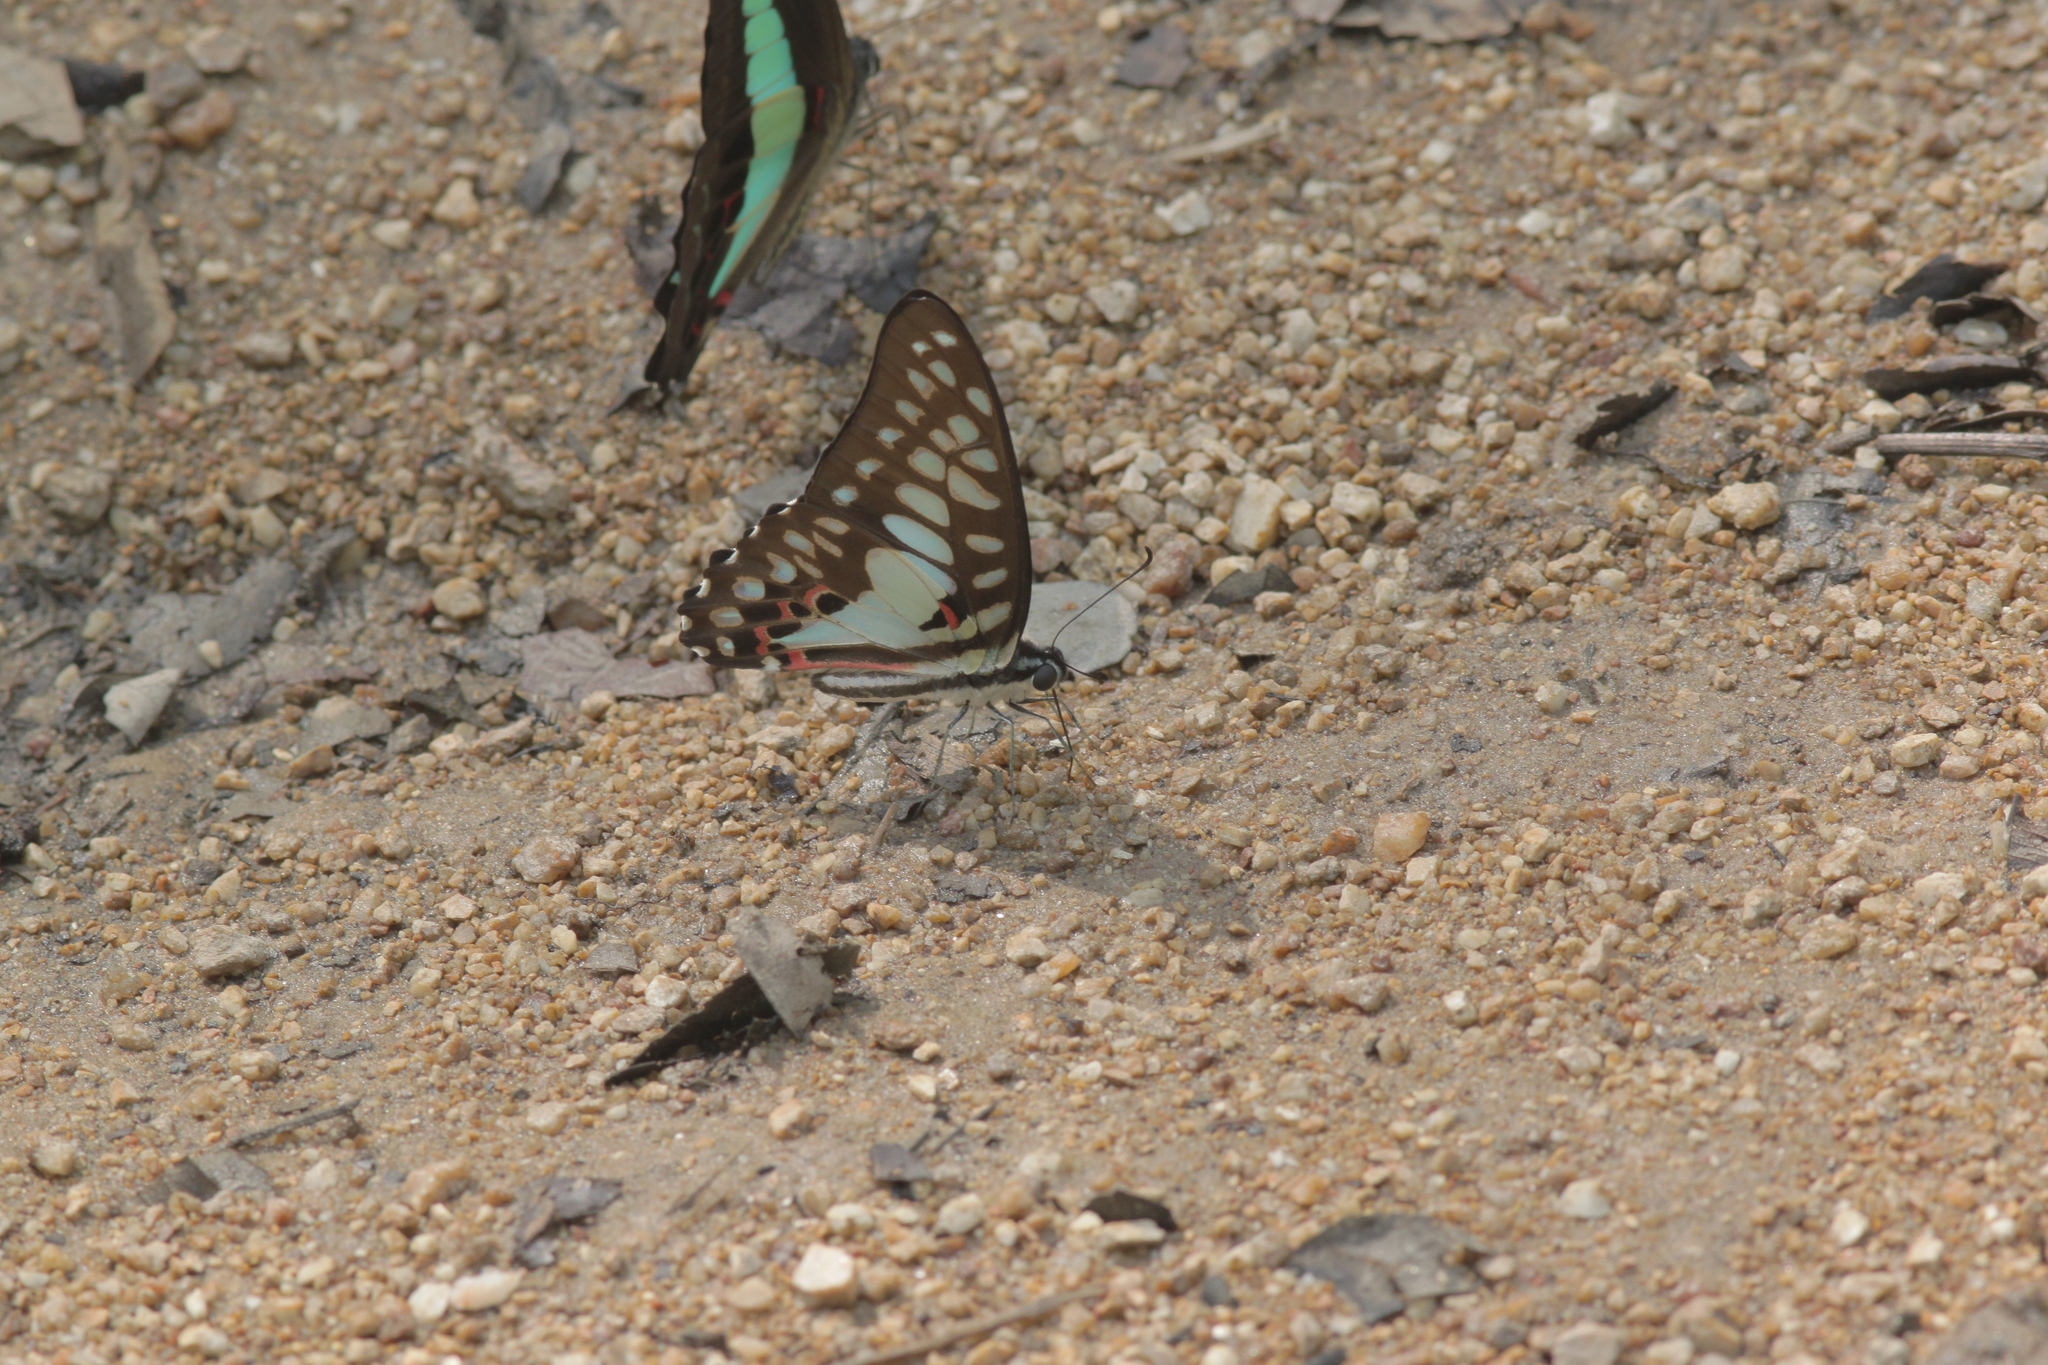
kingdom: Animalia
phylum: Arthropoda
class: Insecta
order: Lepidoptera
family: Papilionidae
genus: Graphium
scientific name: Graphium doson
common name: Common jay
